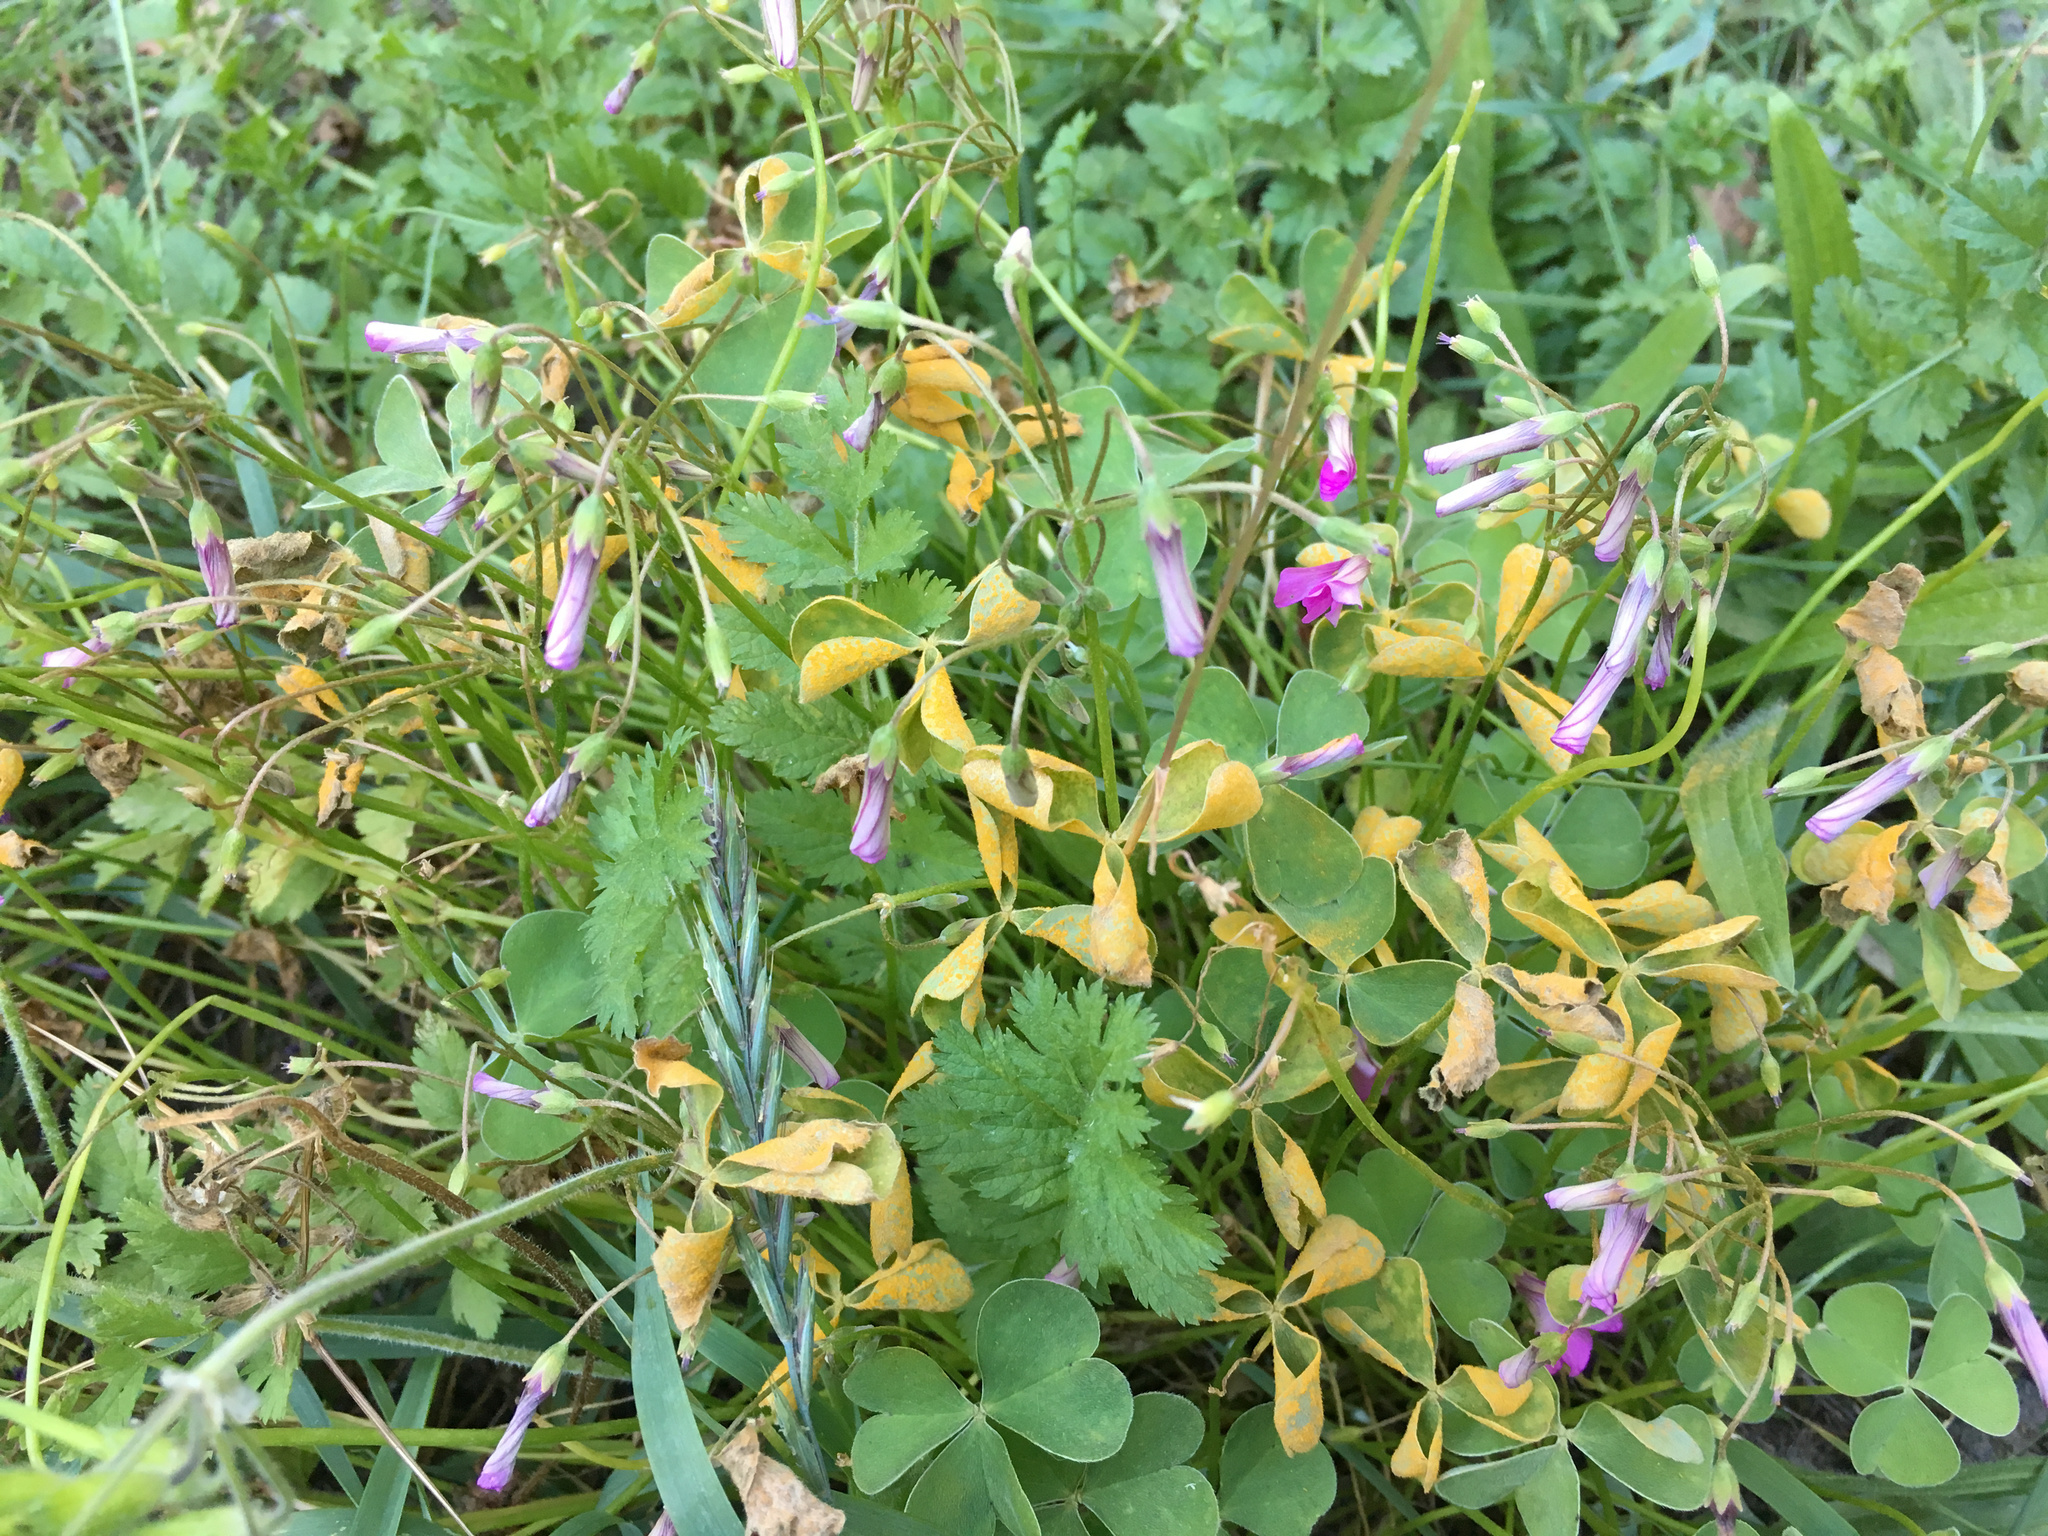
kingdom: Fungi
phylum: Basidiomycota
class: Pucciniomycetes
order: Pucciniales
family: Pucciniaceae
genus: Puccinia
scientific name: Puccinia oxalidis
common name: Oxalis rust
